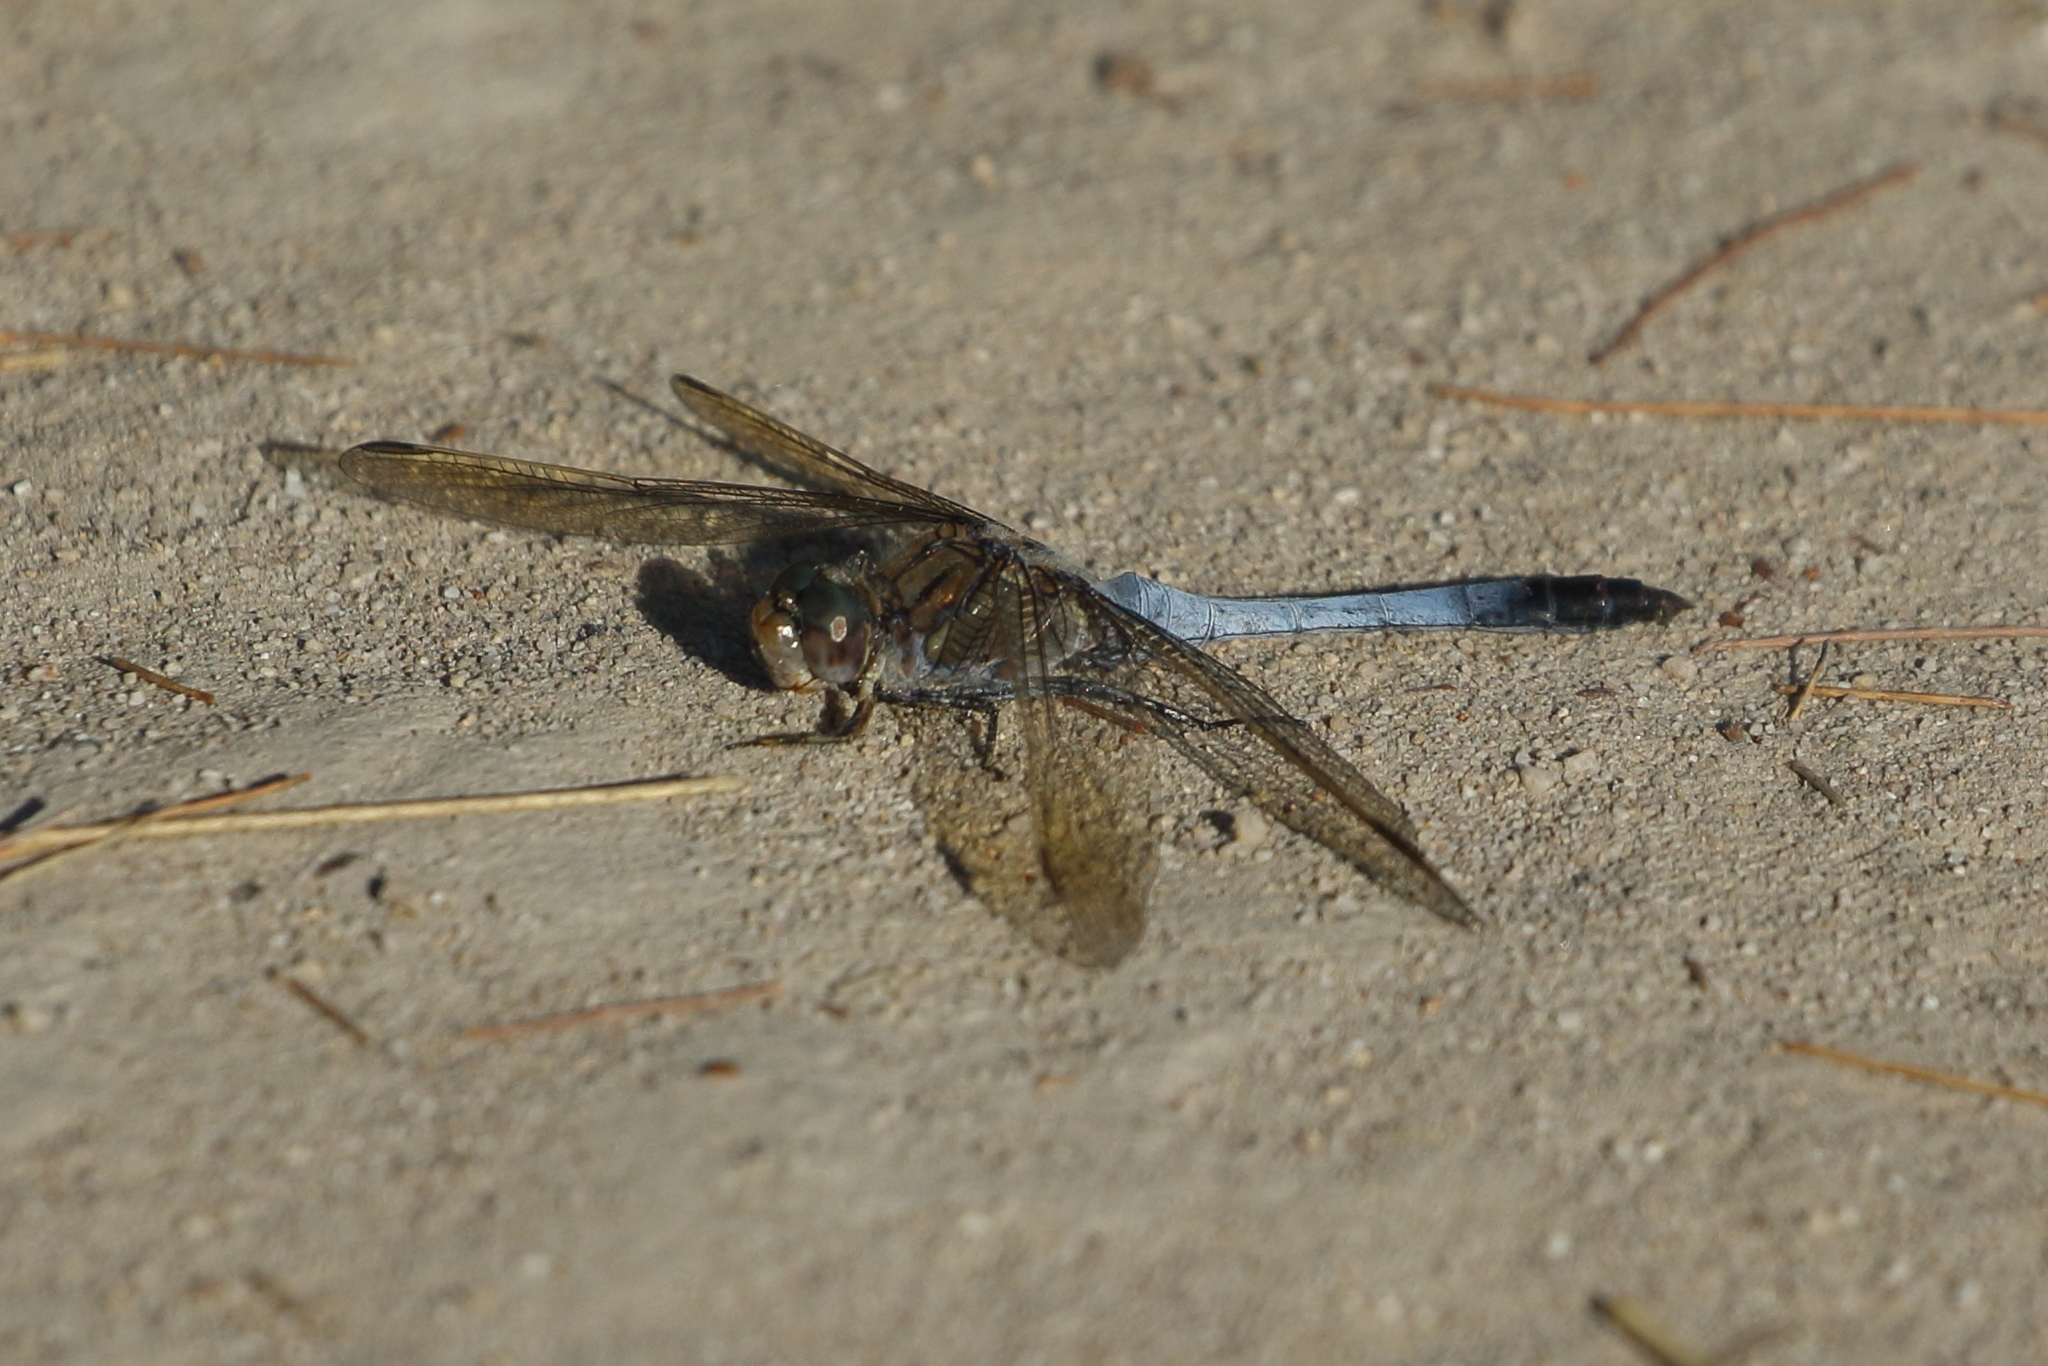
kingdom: Animalia
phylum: Arthropoda
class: Insecta
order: Odonata
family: Libellulidae
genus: Orthetrum
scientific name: Orthetrum caledonicum
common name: Blue skimmer
